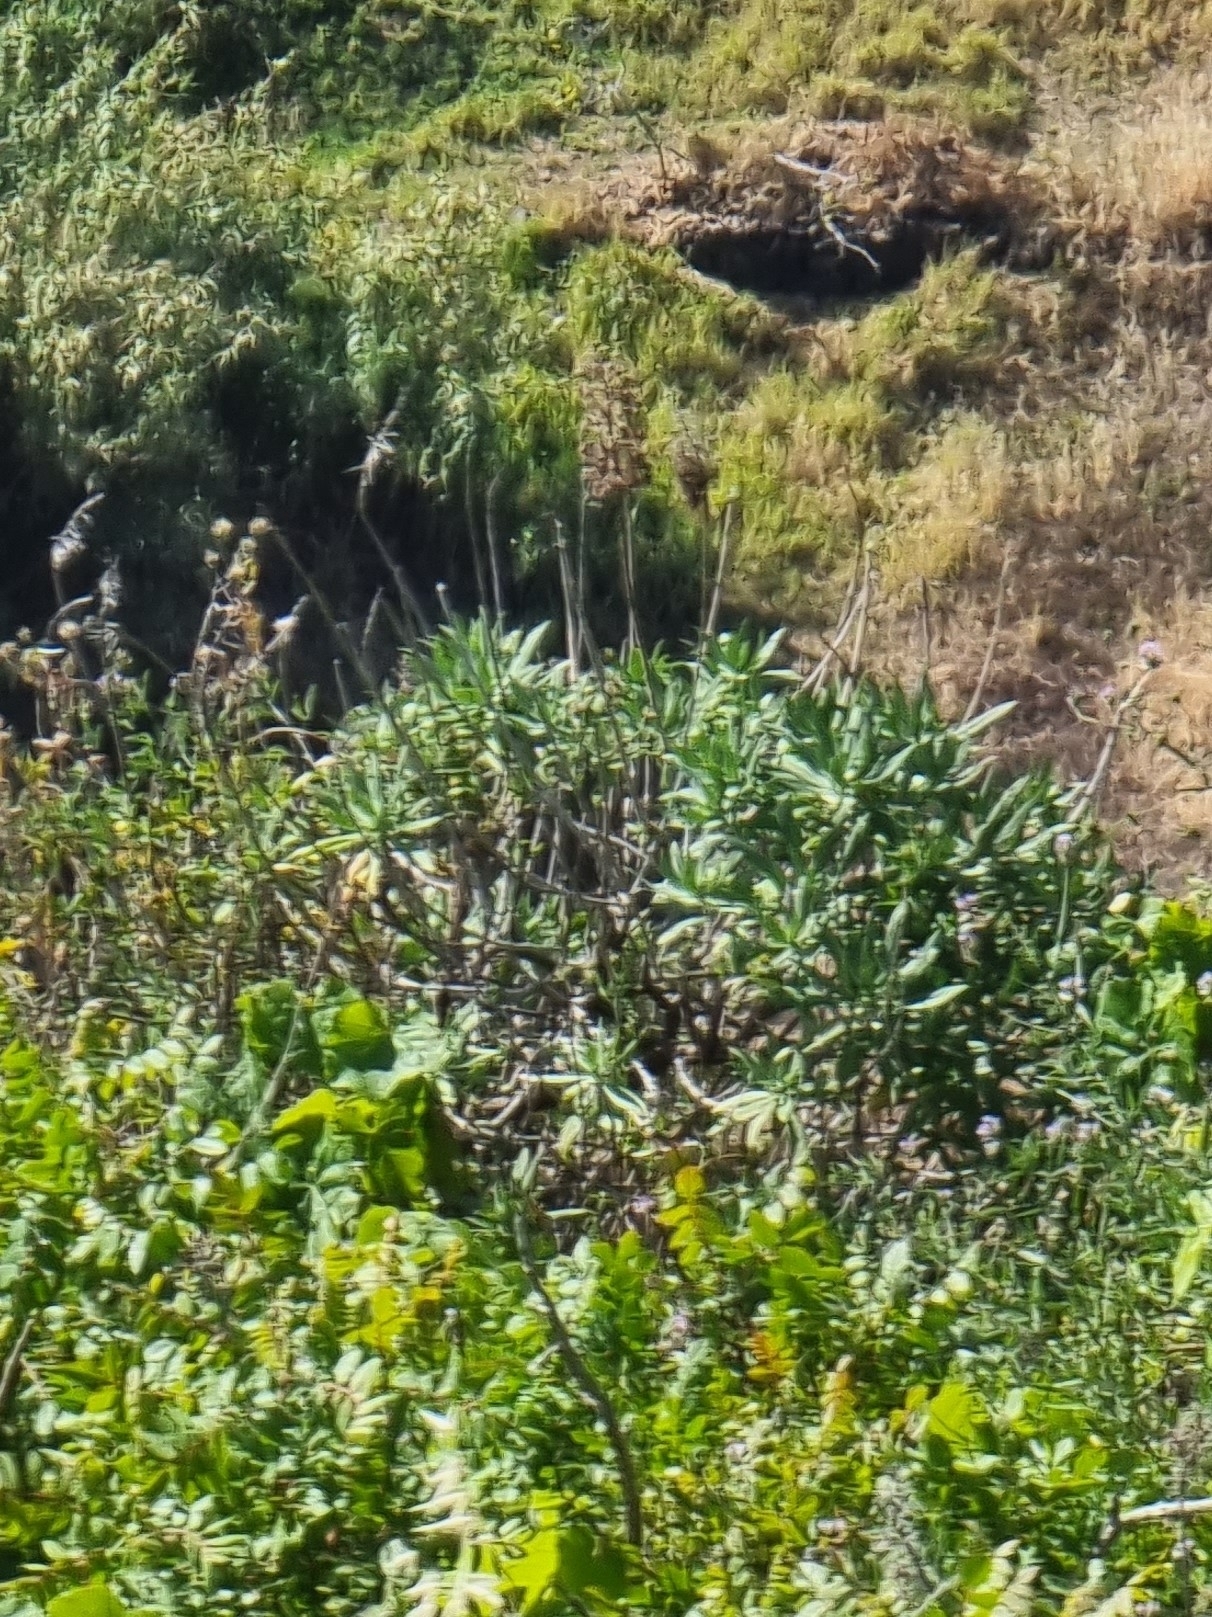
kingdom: Plantae
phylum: Tracheophyta
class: Magnoliopsida
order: Boraginales
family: Boraginaceae
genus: Echium
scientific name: Echium nervosum
